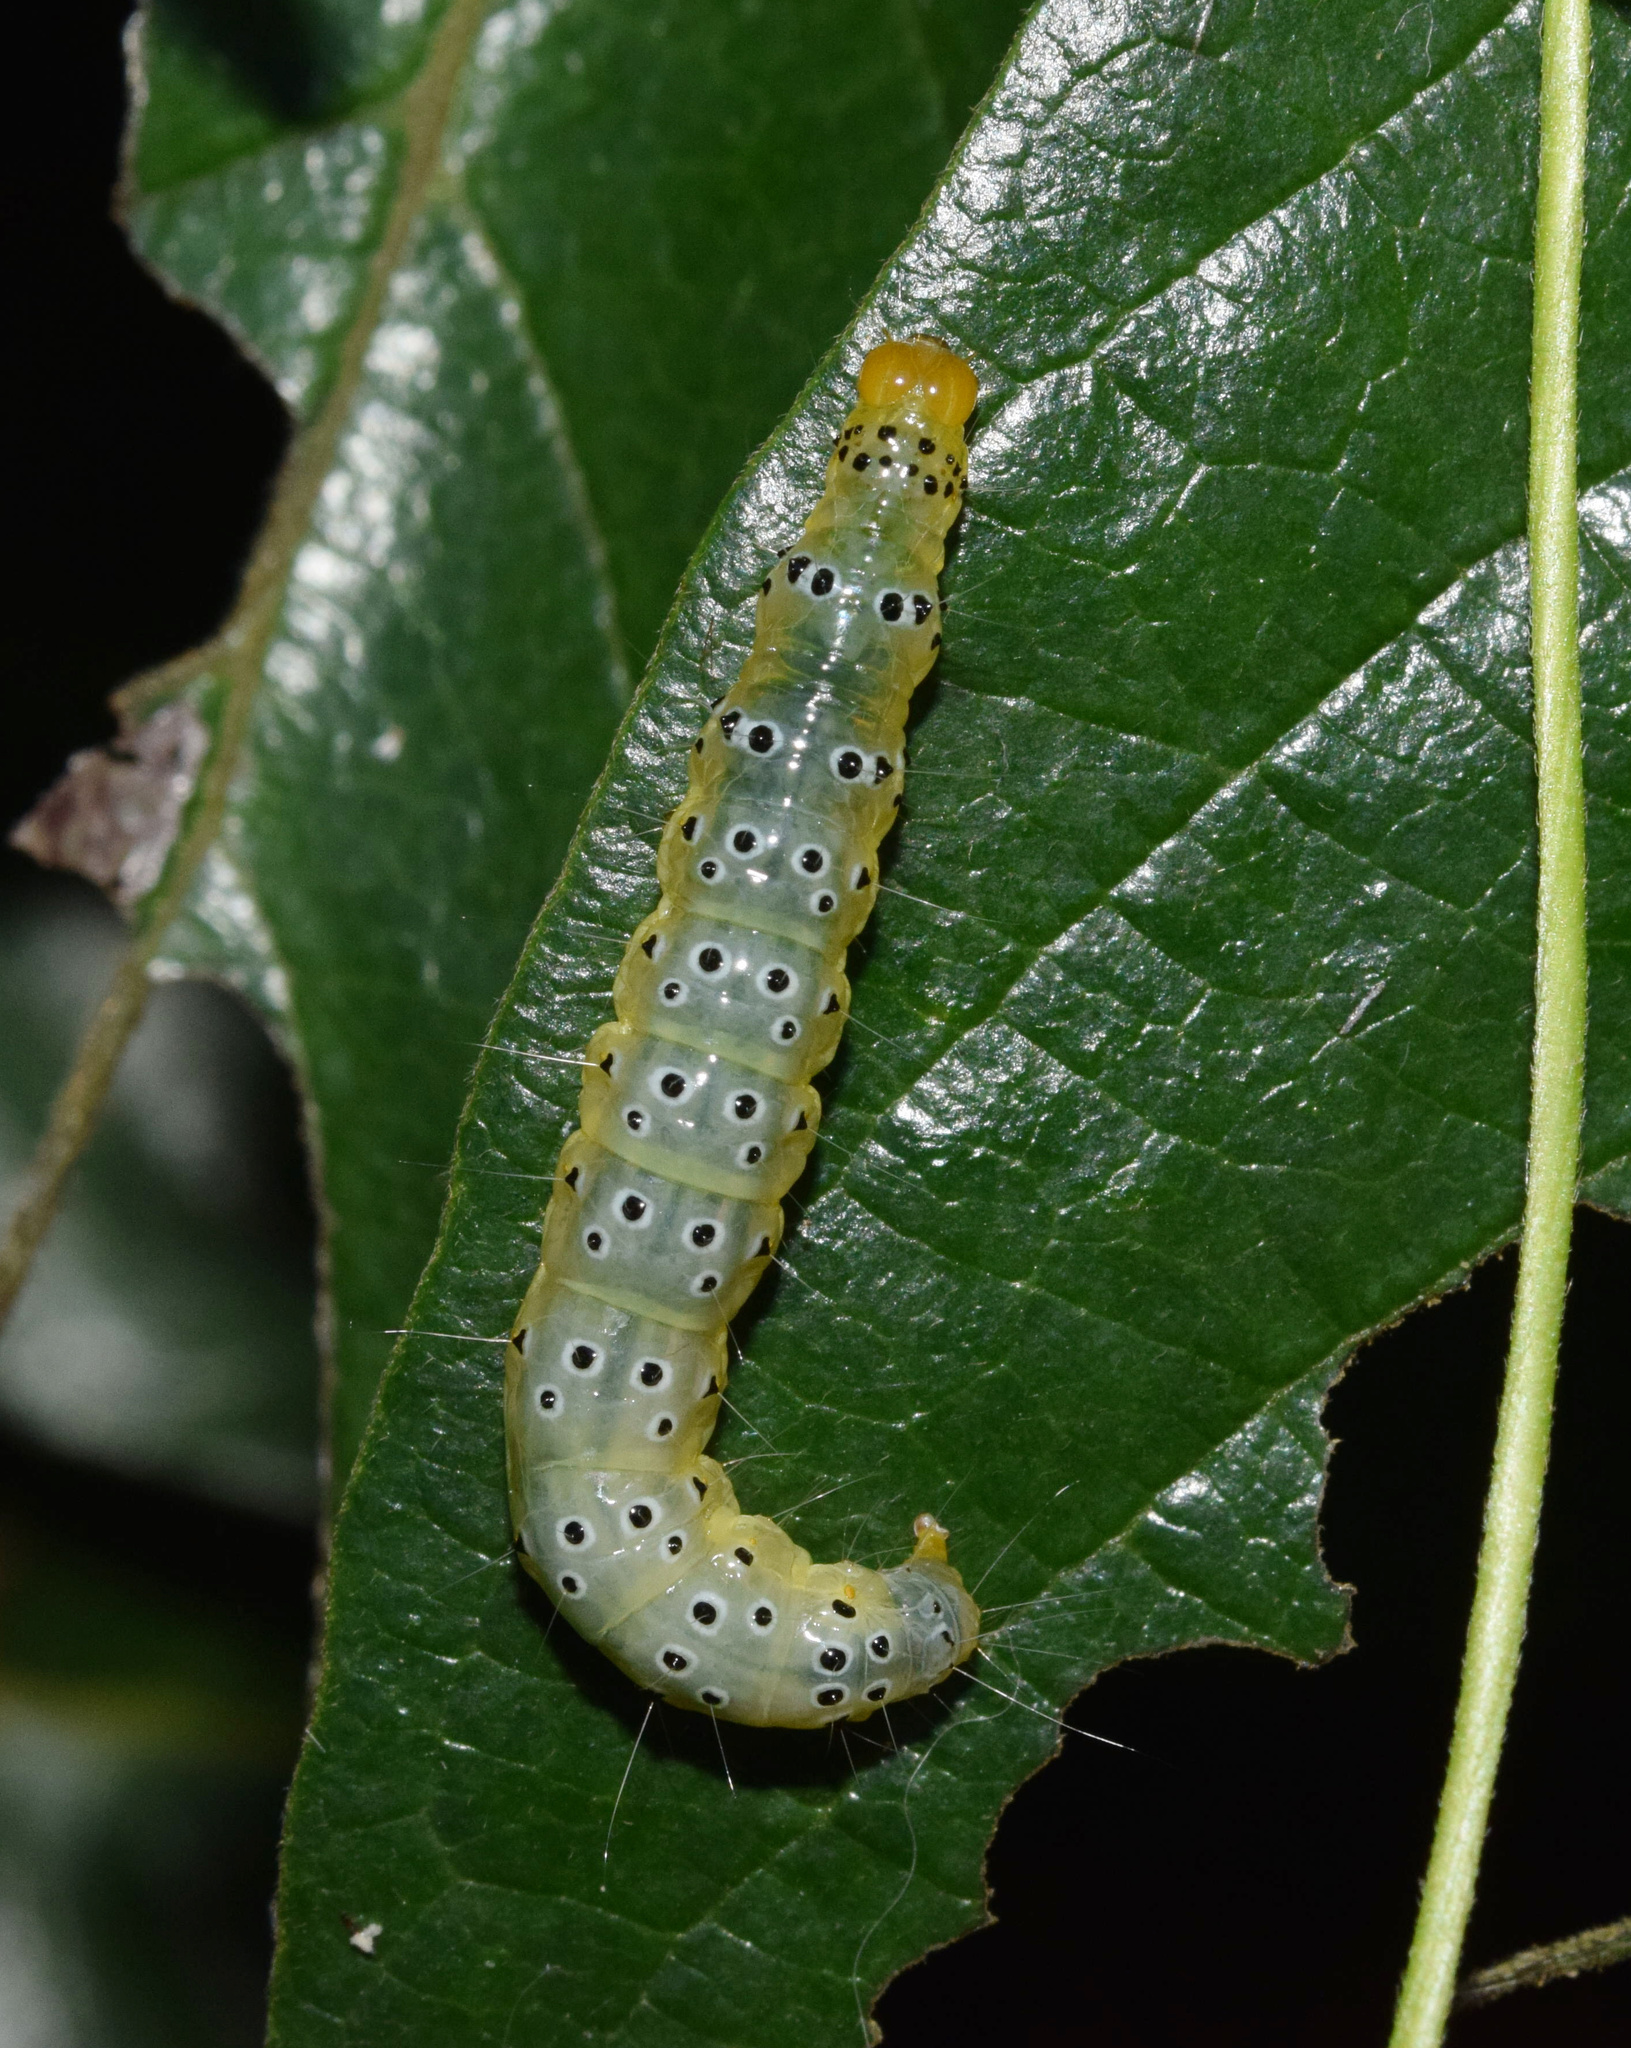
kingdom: Animalia
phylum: Arthropoda
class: Insecta
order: Lepidoptera
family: Crambidae
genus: Filodes
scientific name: Filodes costivitralis
